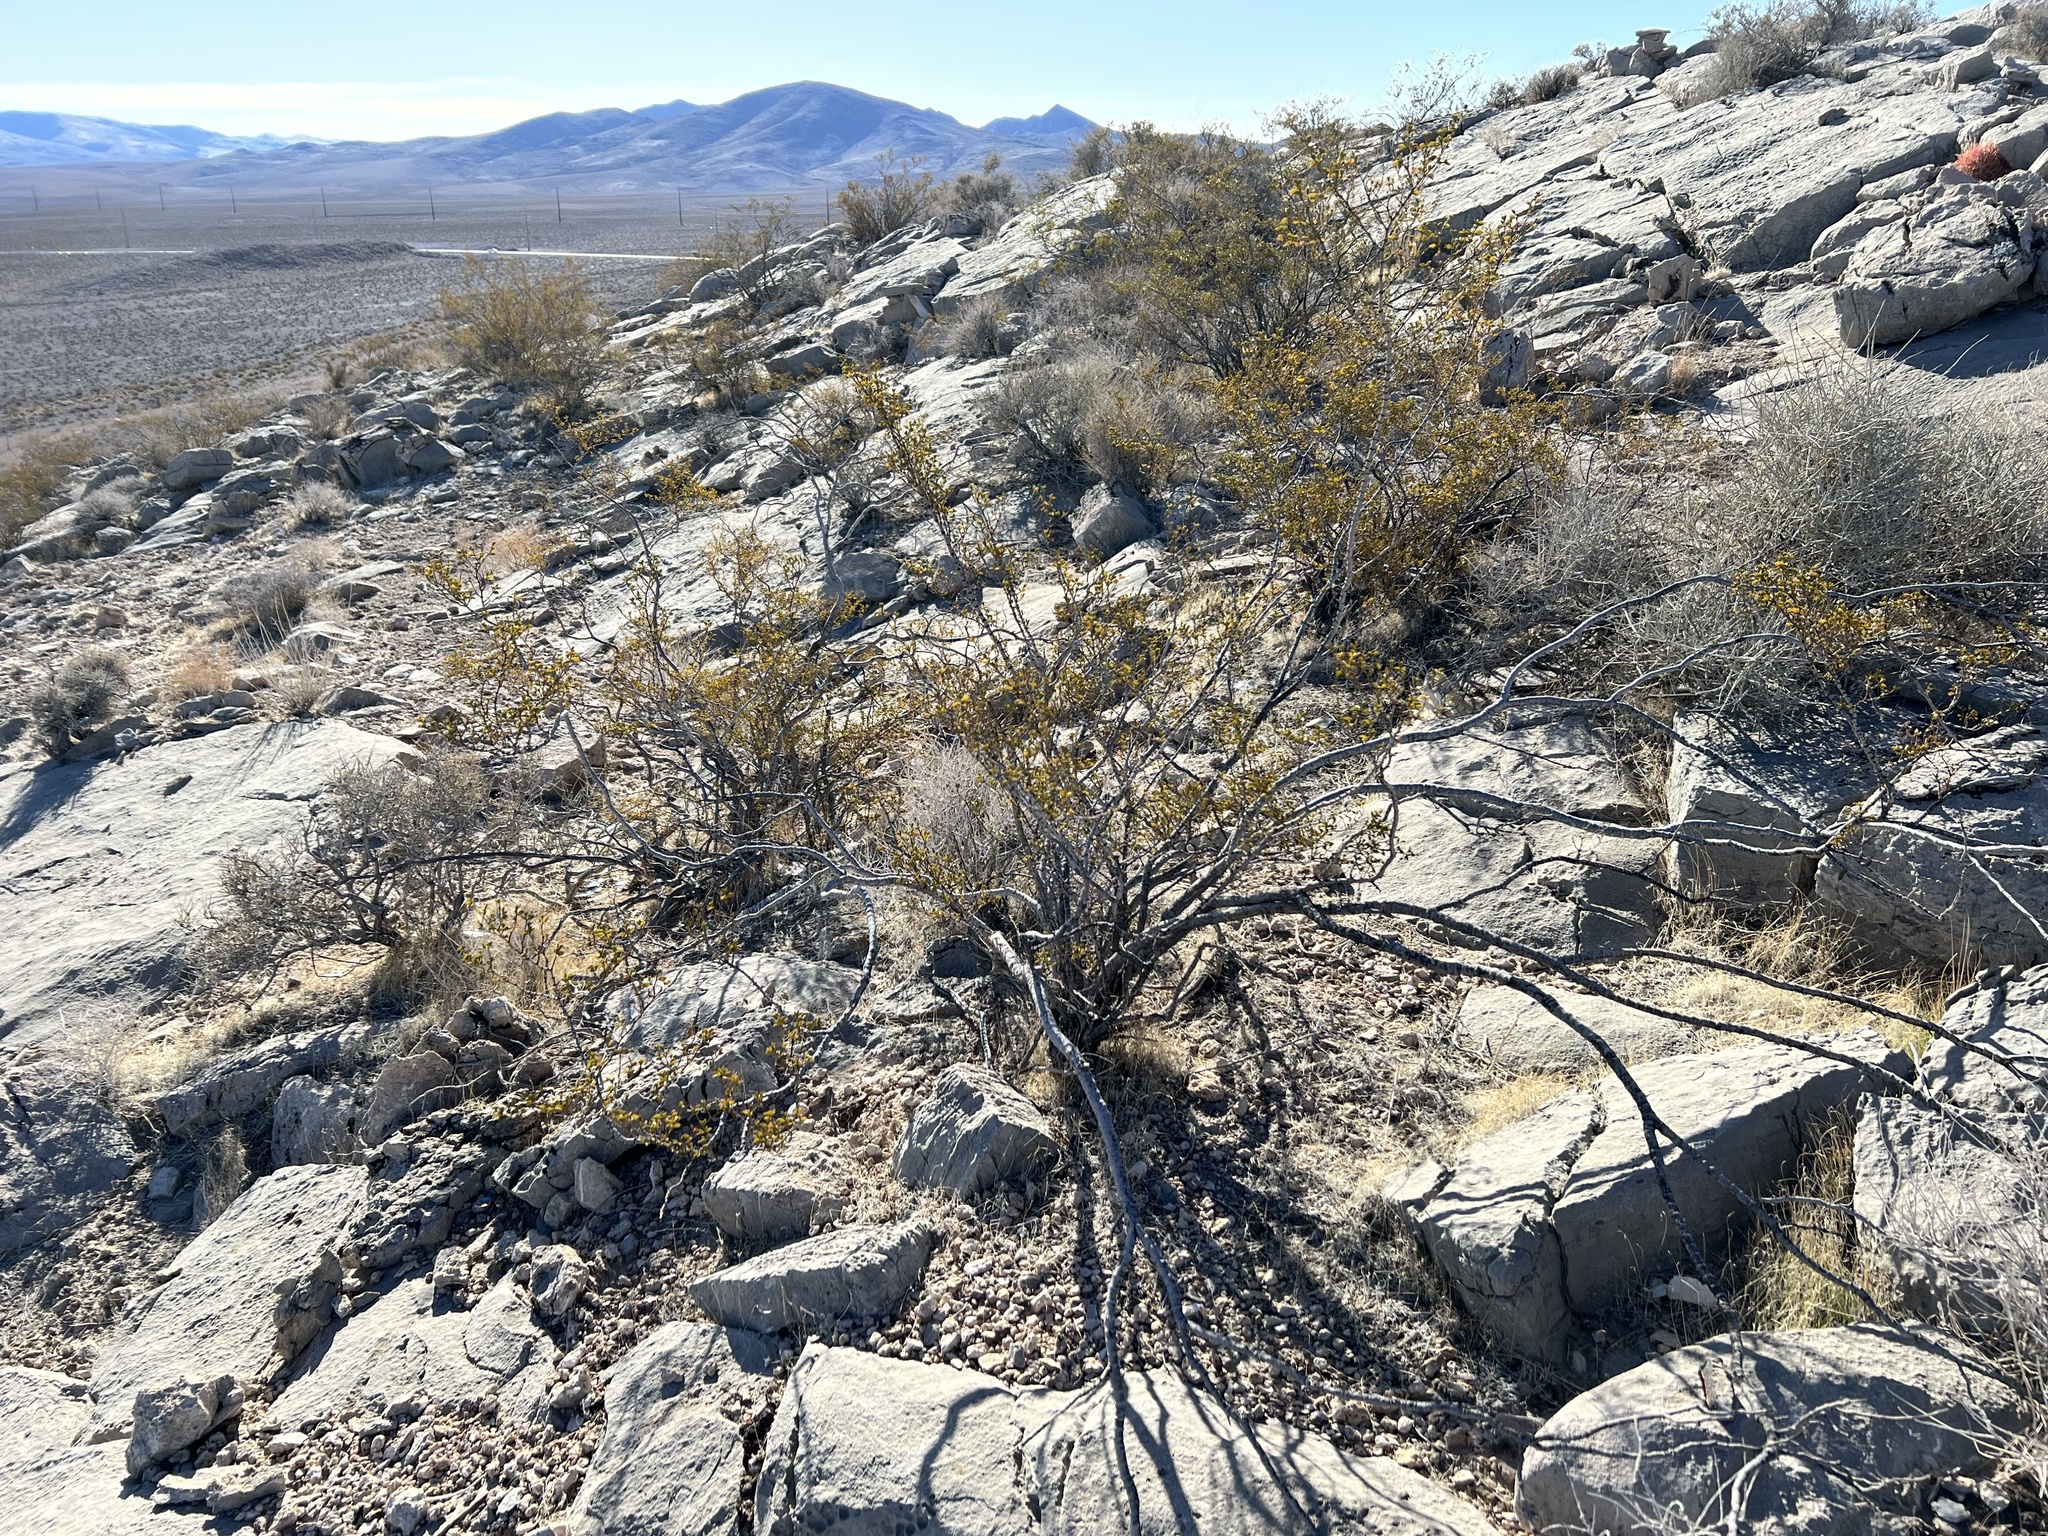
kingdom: Plantae
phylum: Tracheophyta
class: Magnoliopsida
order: Zygophyllales
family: Zygophyllaceae
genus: Larrea
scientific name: Larrea tridentata
